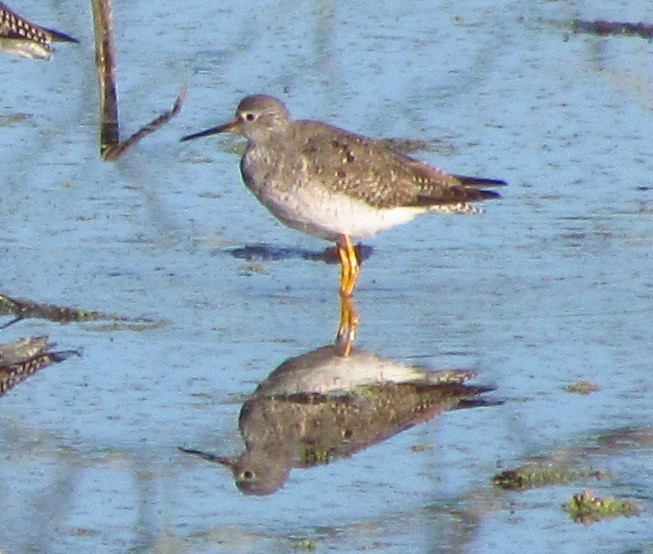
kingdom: Animalia
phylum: Chordata
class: Aves
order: Charadriiformes
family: Scolopacidae
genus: Tringa
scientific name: Tringa flavipes
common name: Lesser yellowlegs
